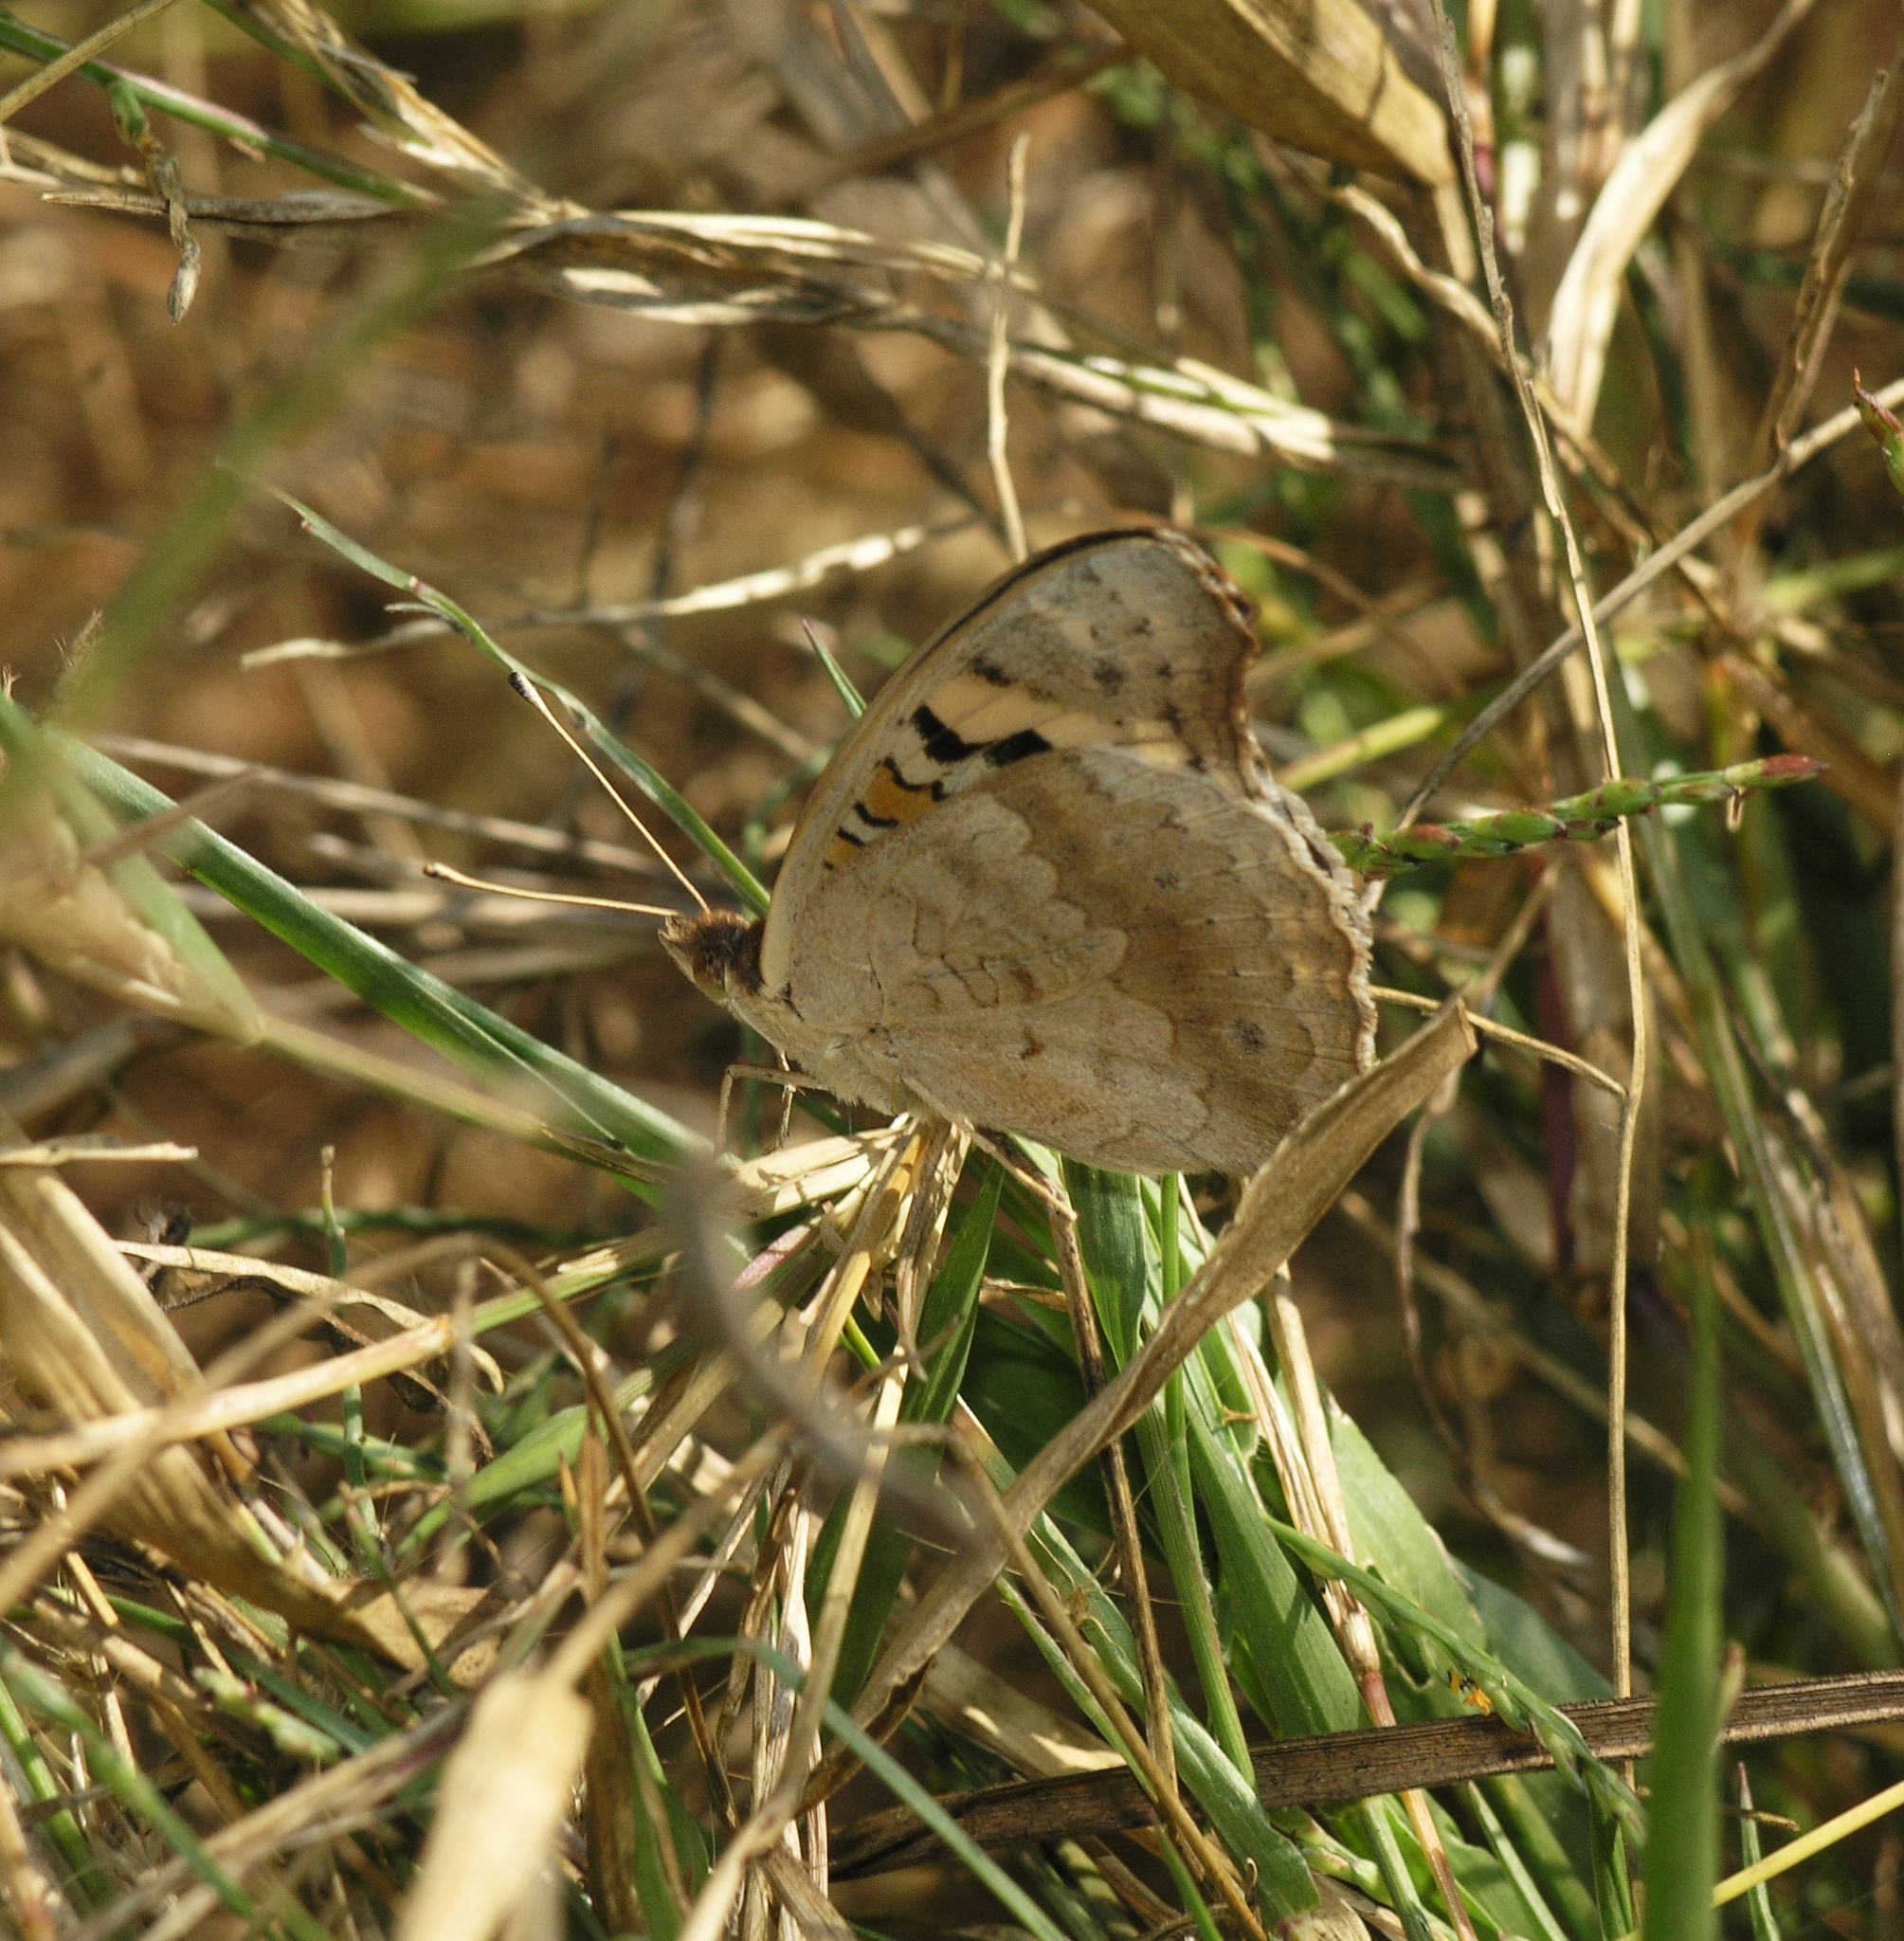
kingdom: Animalia
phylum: Arthropoda
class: Insecta
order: Lepidoptera
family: Nymphalidae
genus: Junonia
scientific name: Junonia orithya
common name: Blue pansy
